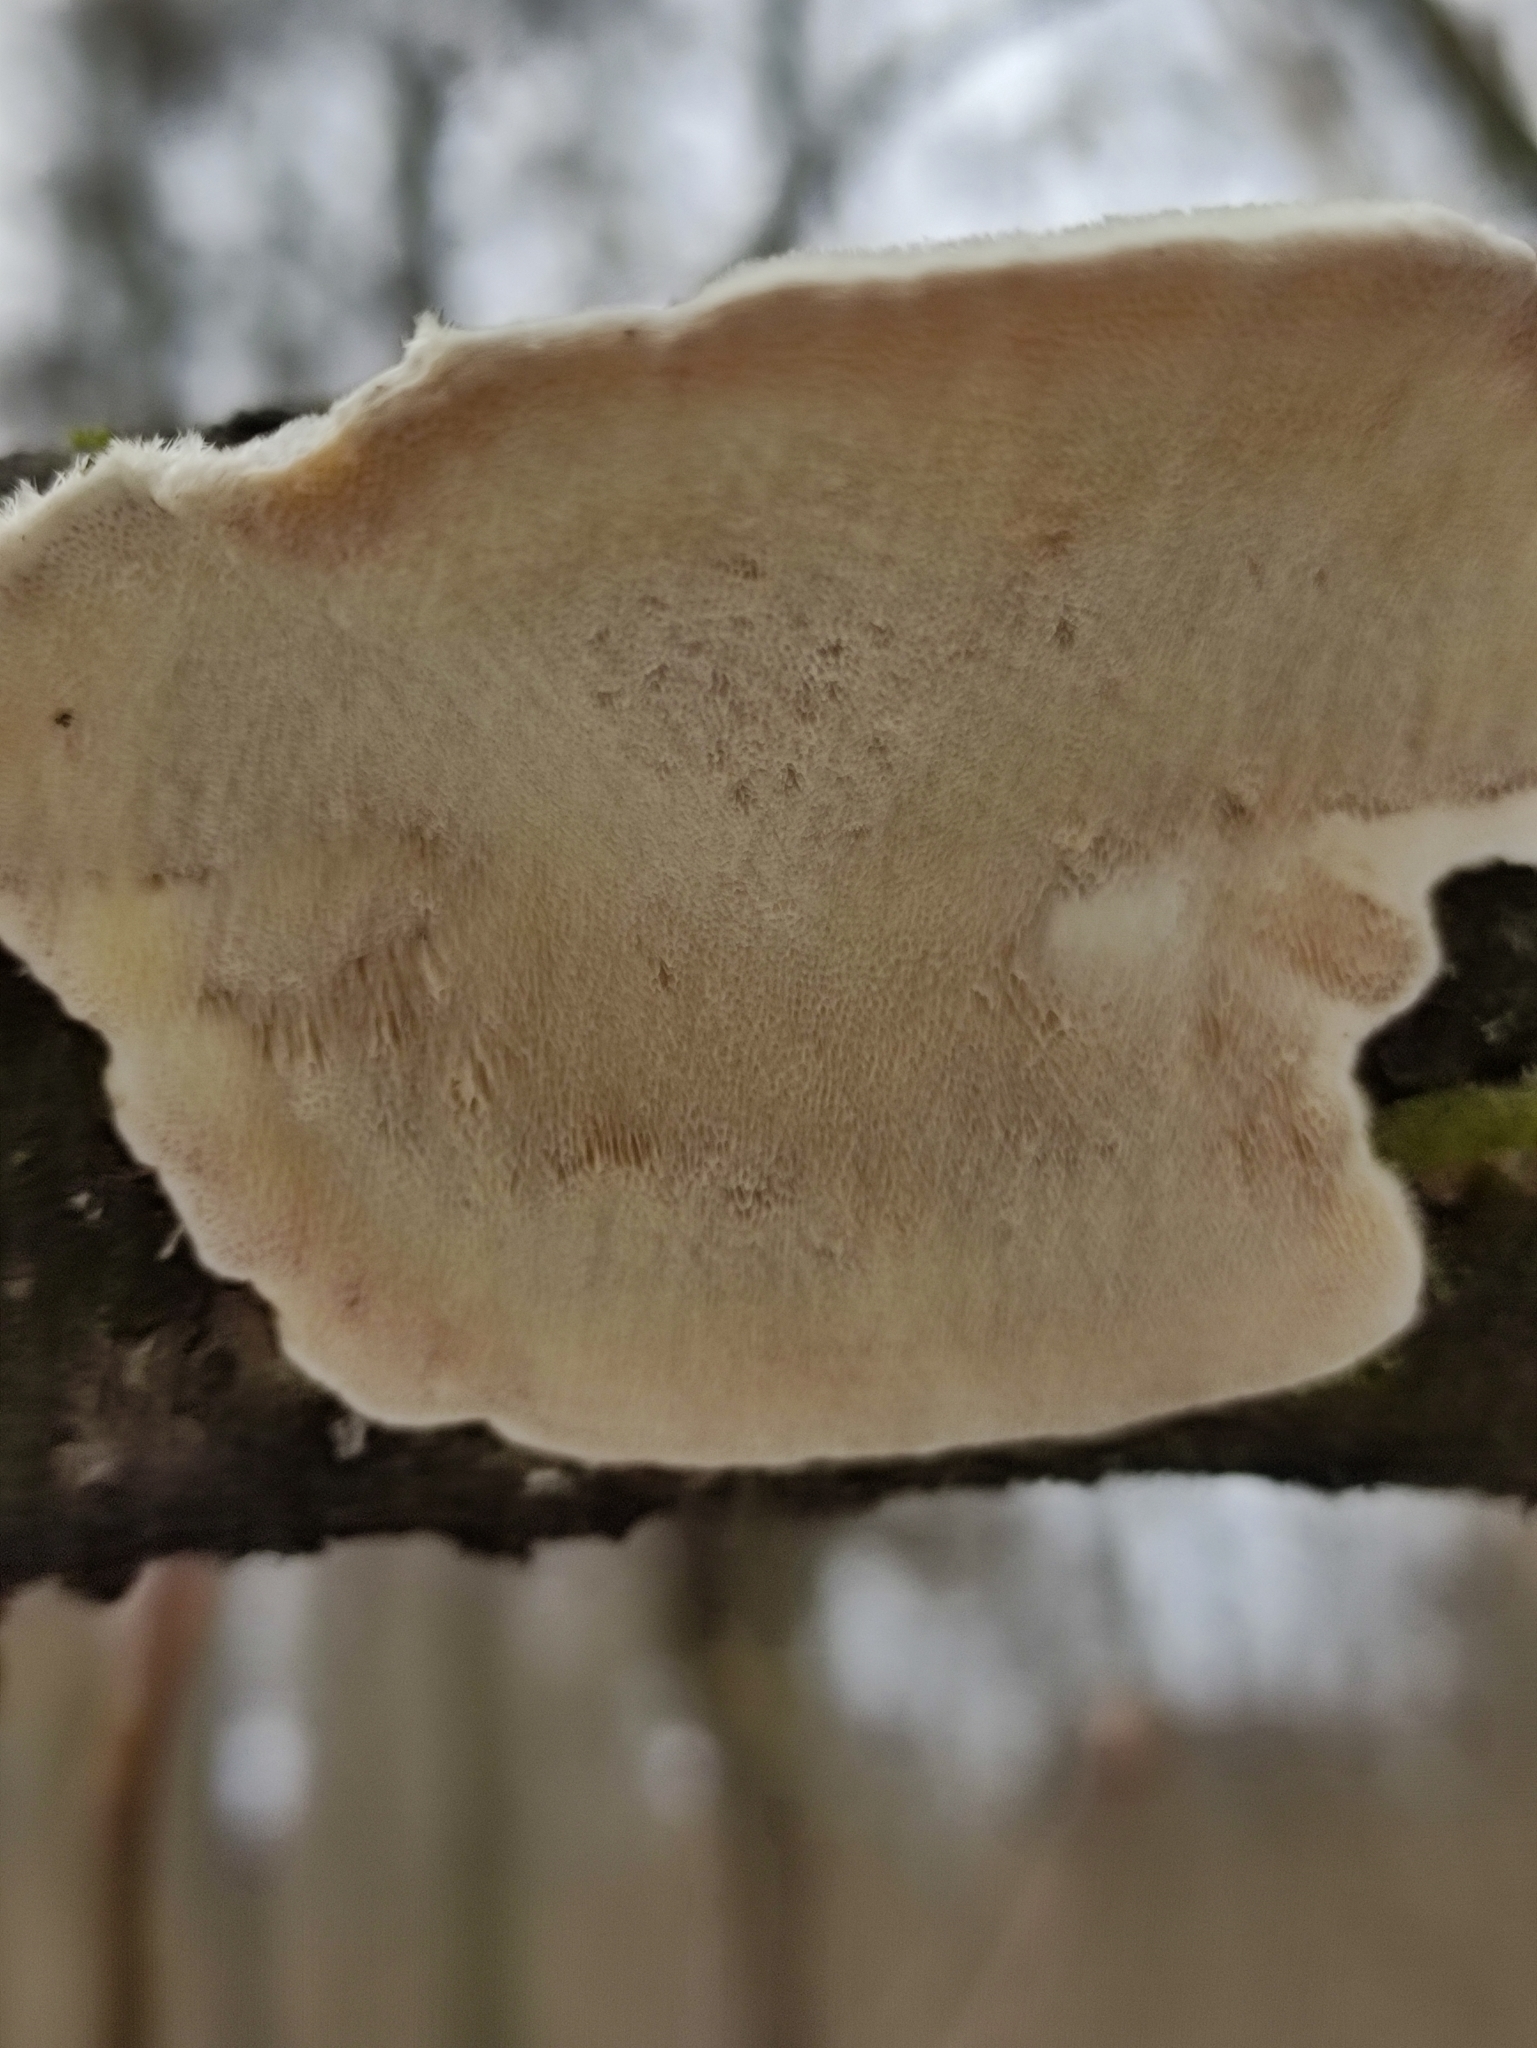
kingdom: Fungi
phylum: Basidiomycota
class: Agaricomycetes
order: Polyporales
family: Polyporaceae
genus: Trametes
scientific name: Trametes hirsuta
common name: Hairy bracket
